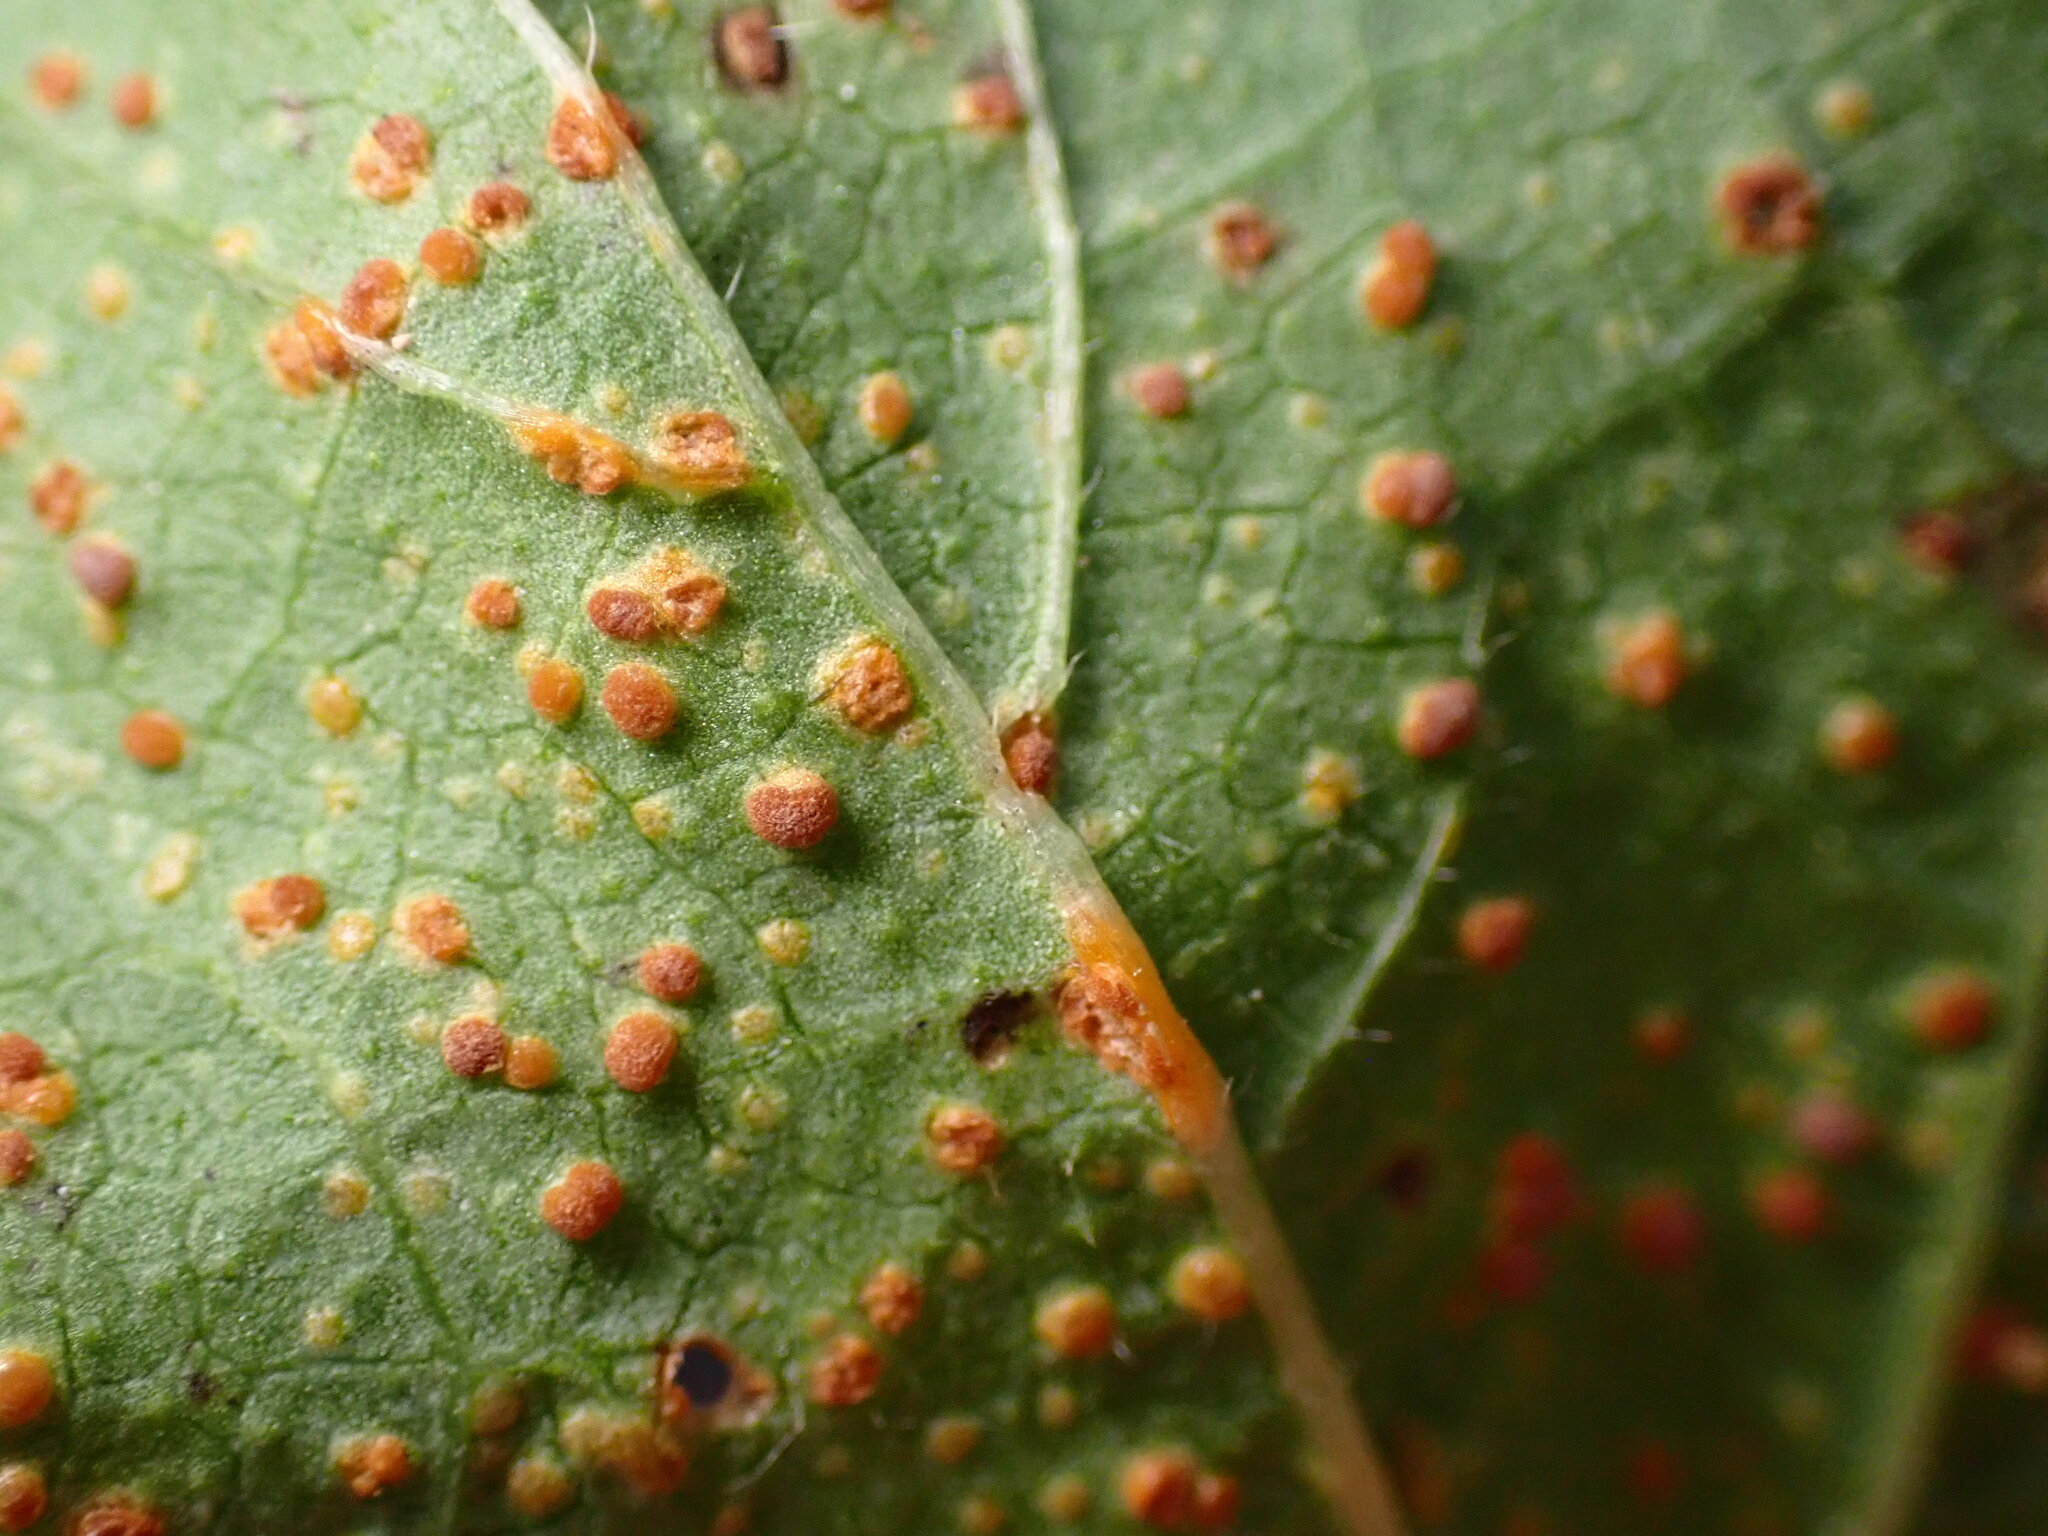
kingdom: Fungi
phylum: Basidiomycota
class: Pucciniomycetes
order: Pucciniales
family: Pucciniaceae
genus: Puccinia
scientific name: Puccinia malvacearum
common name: Hollyhock rust
